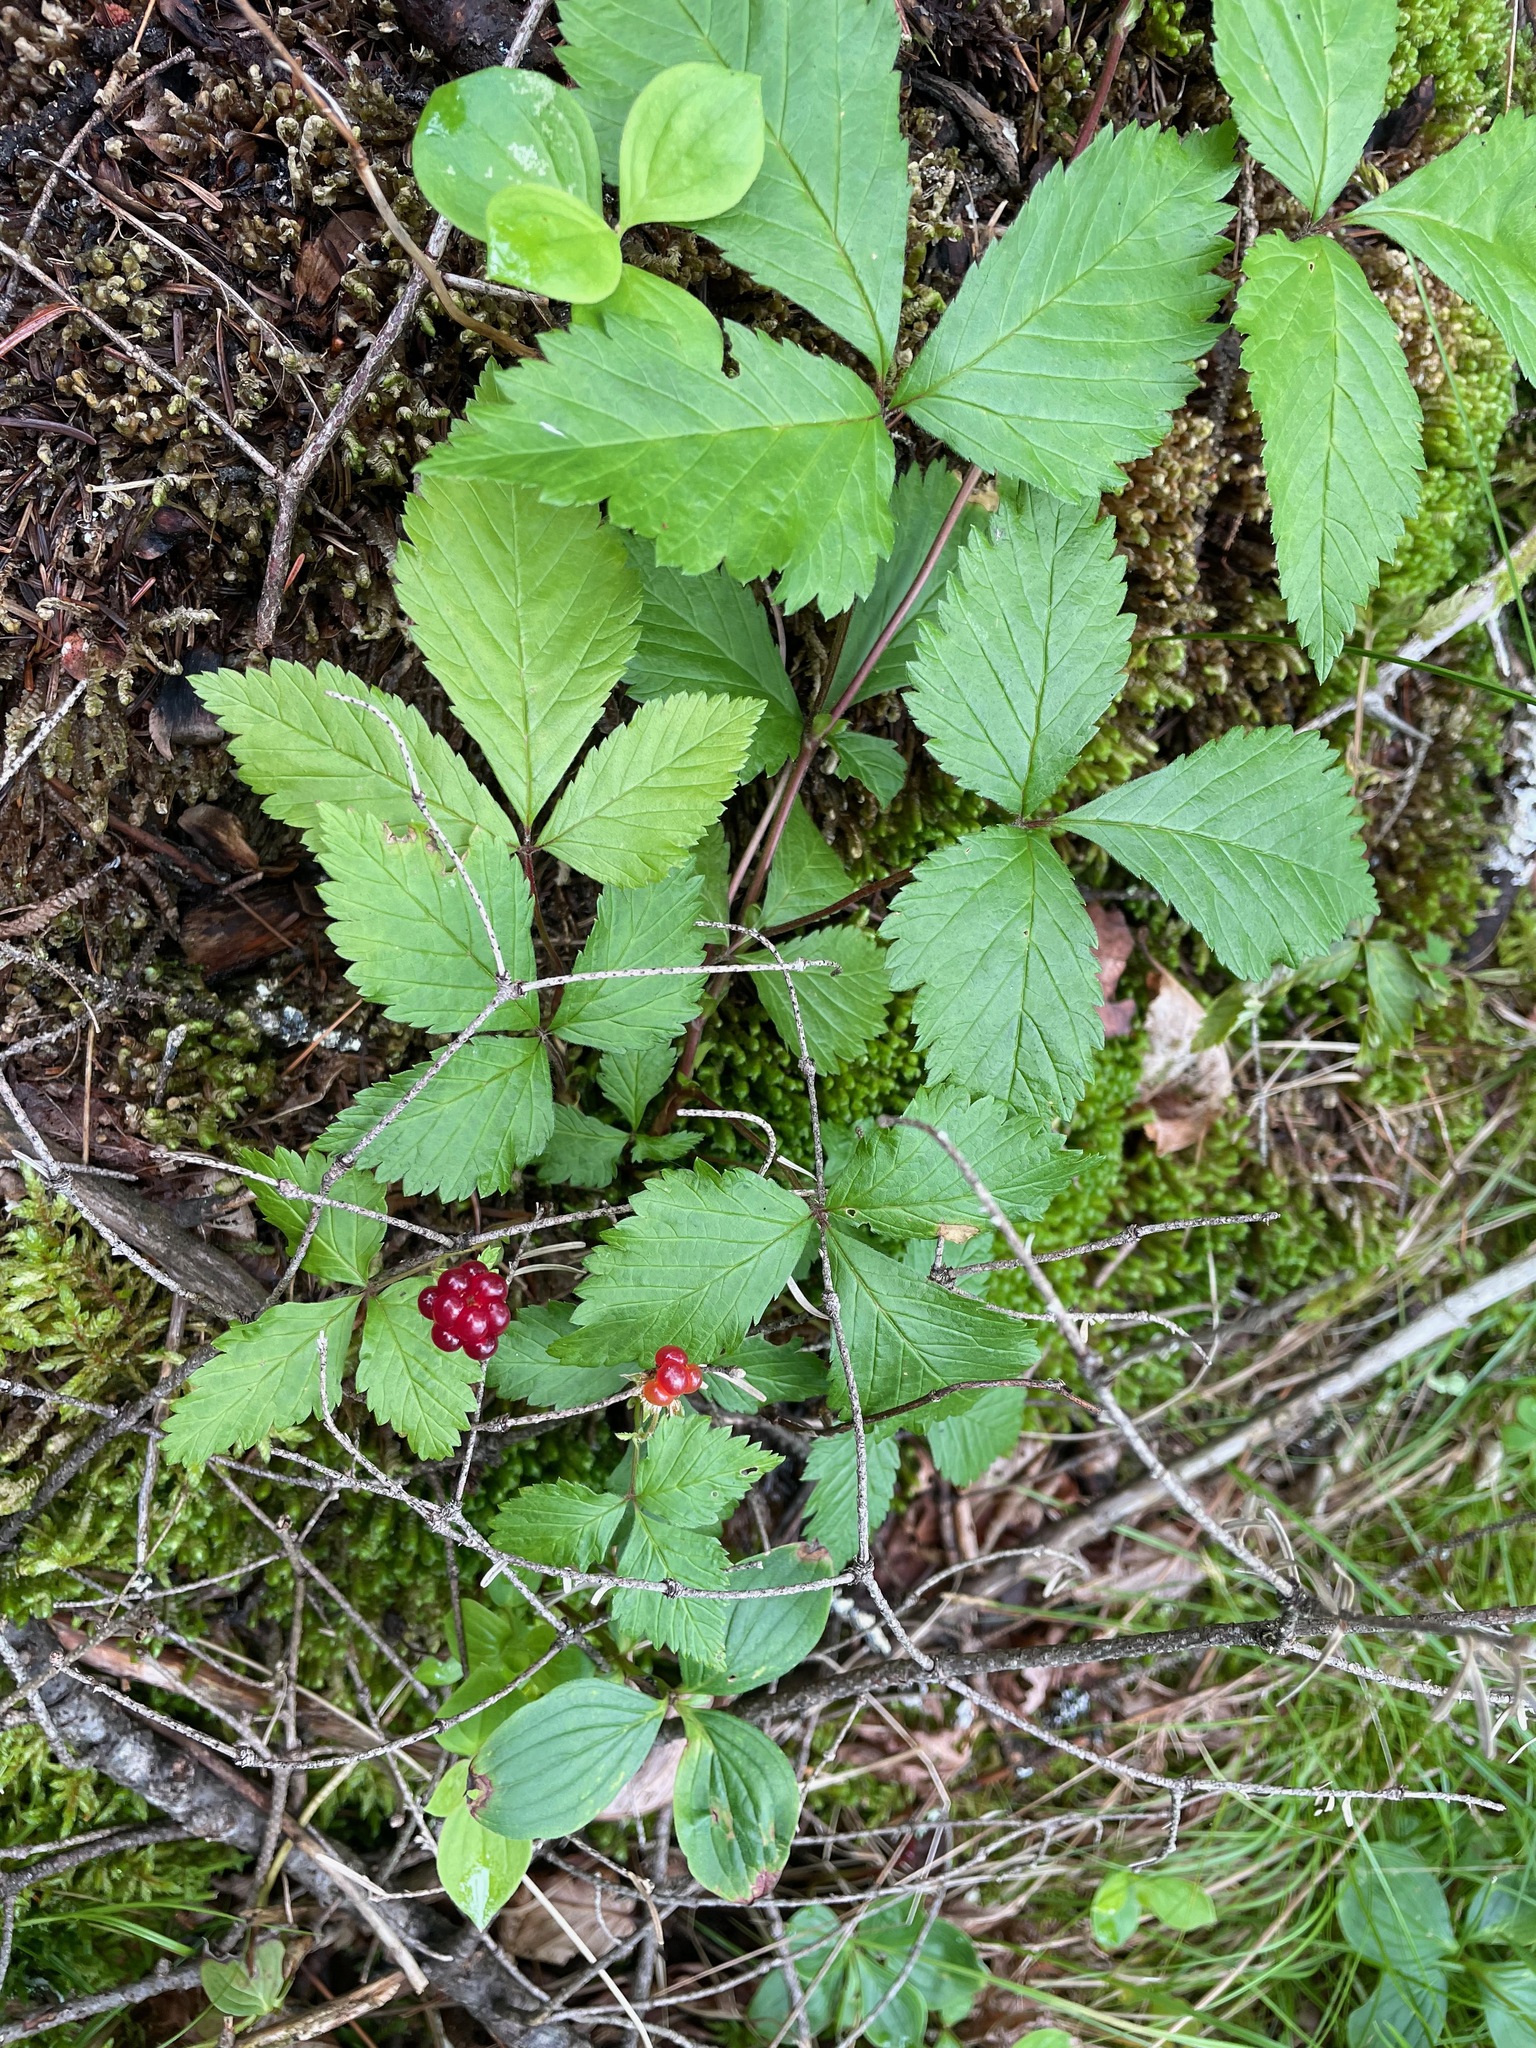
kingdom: Plantae
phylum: Tracheophyta
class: Magnoliopsida
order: Rosales
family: Rosaceae
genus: Rubus
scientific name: Rubus pubescens
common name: Dwarf raspberry
